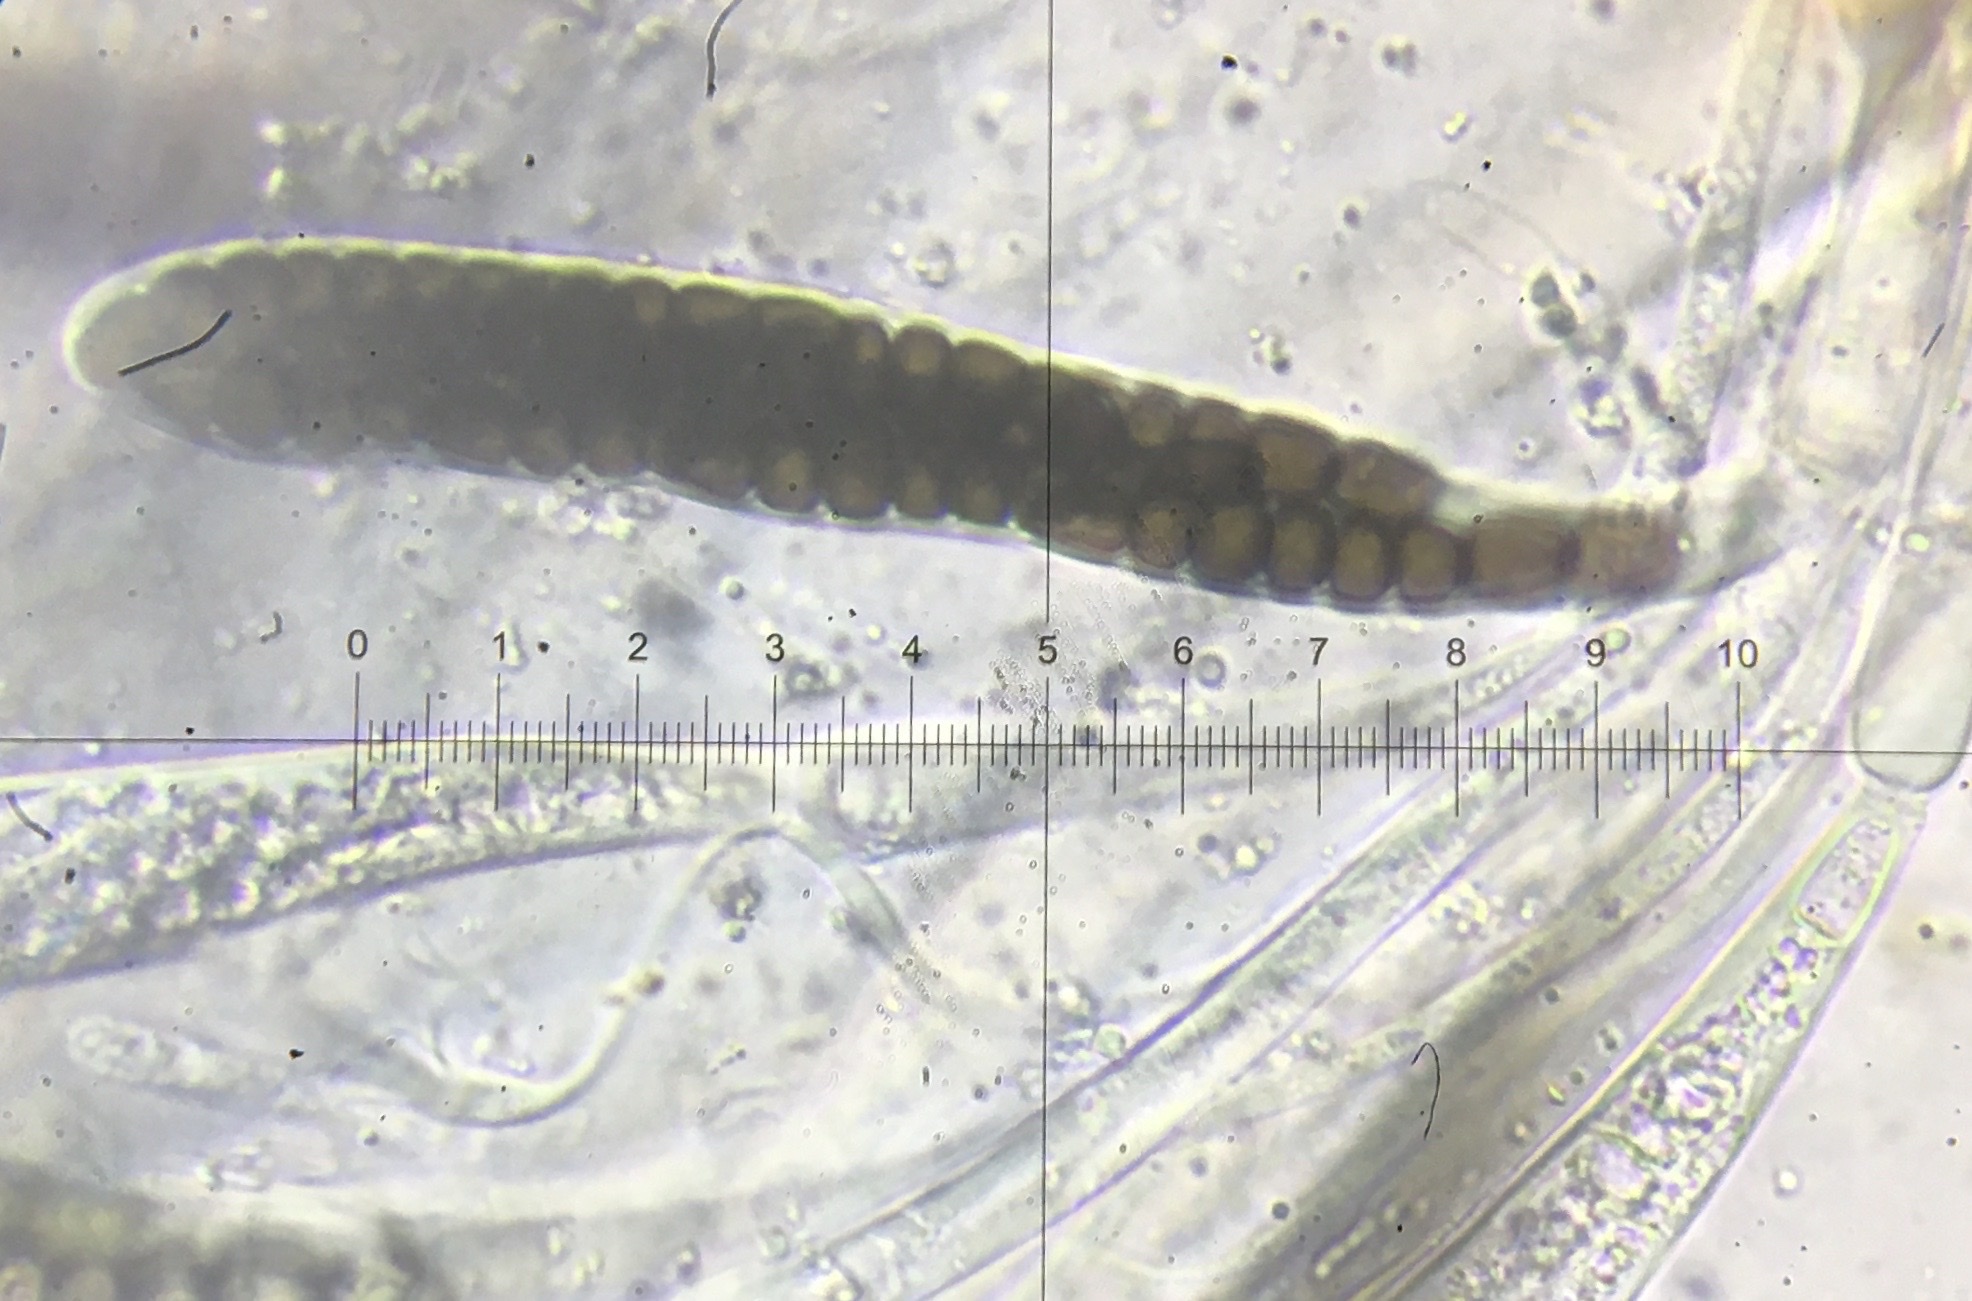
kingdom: Fungi
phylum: Ascomycota
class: Dothideomycetes
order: Pleosporales
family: Sporormiaceae
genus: Preussia
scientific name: Preussia octomera
